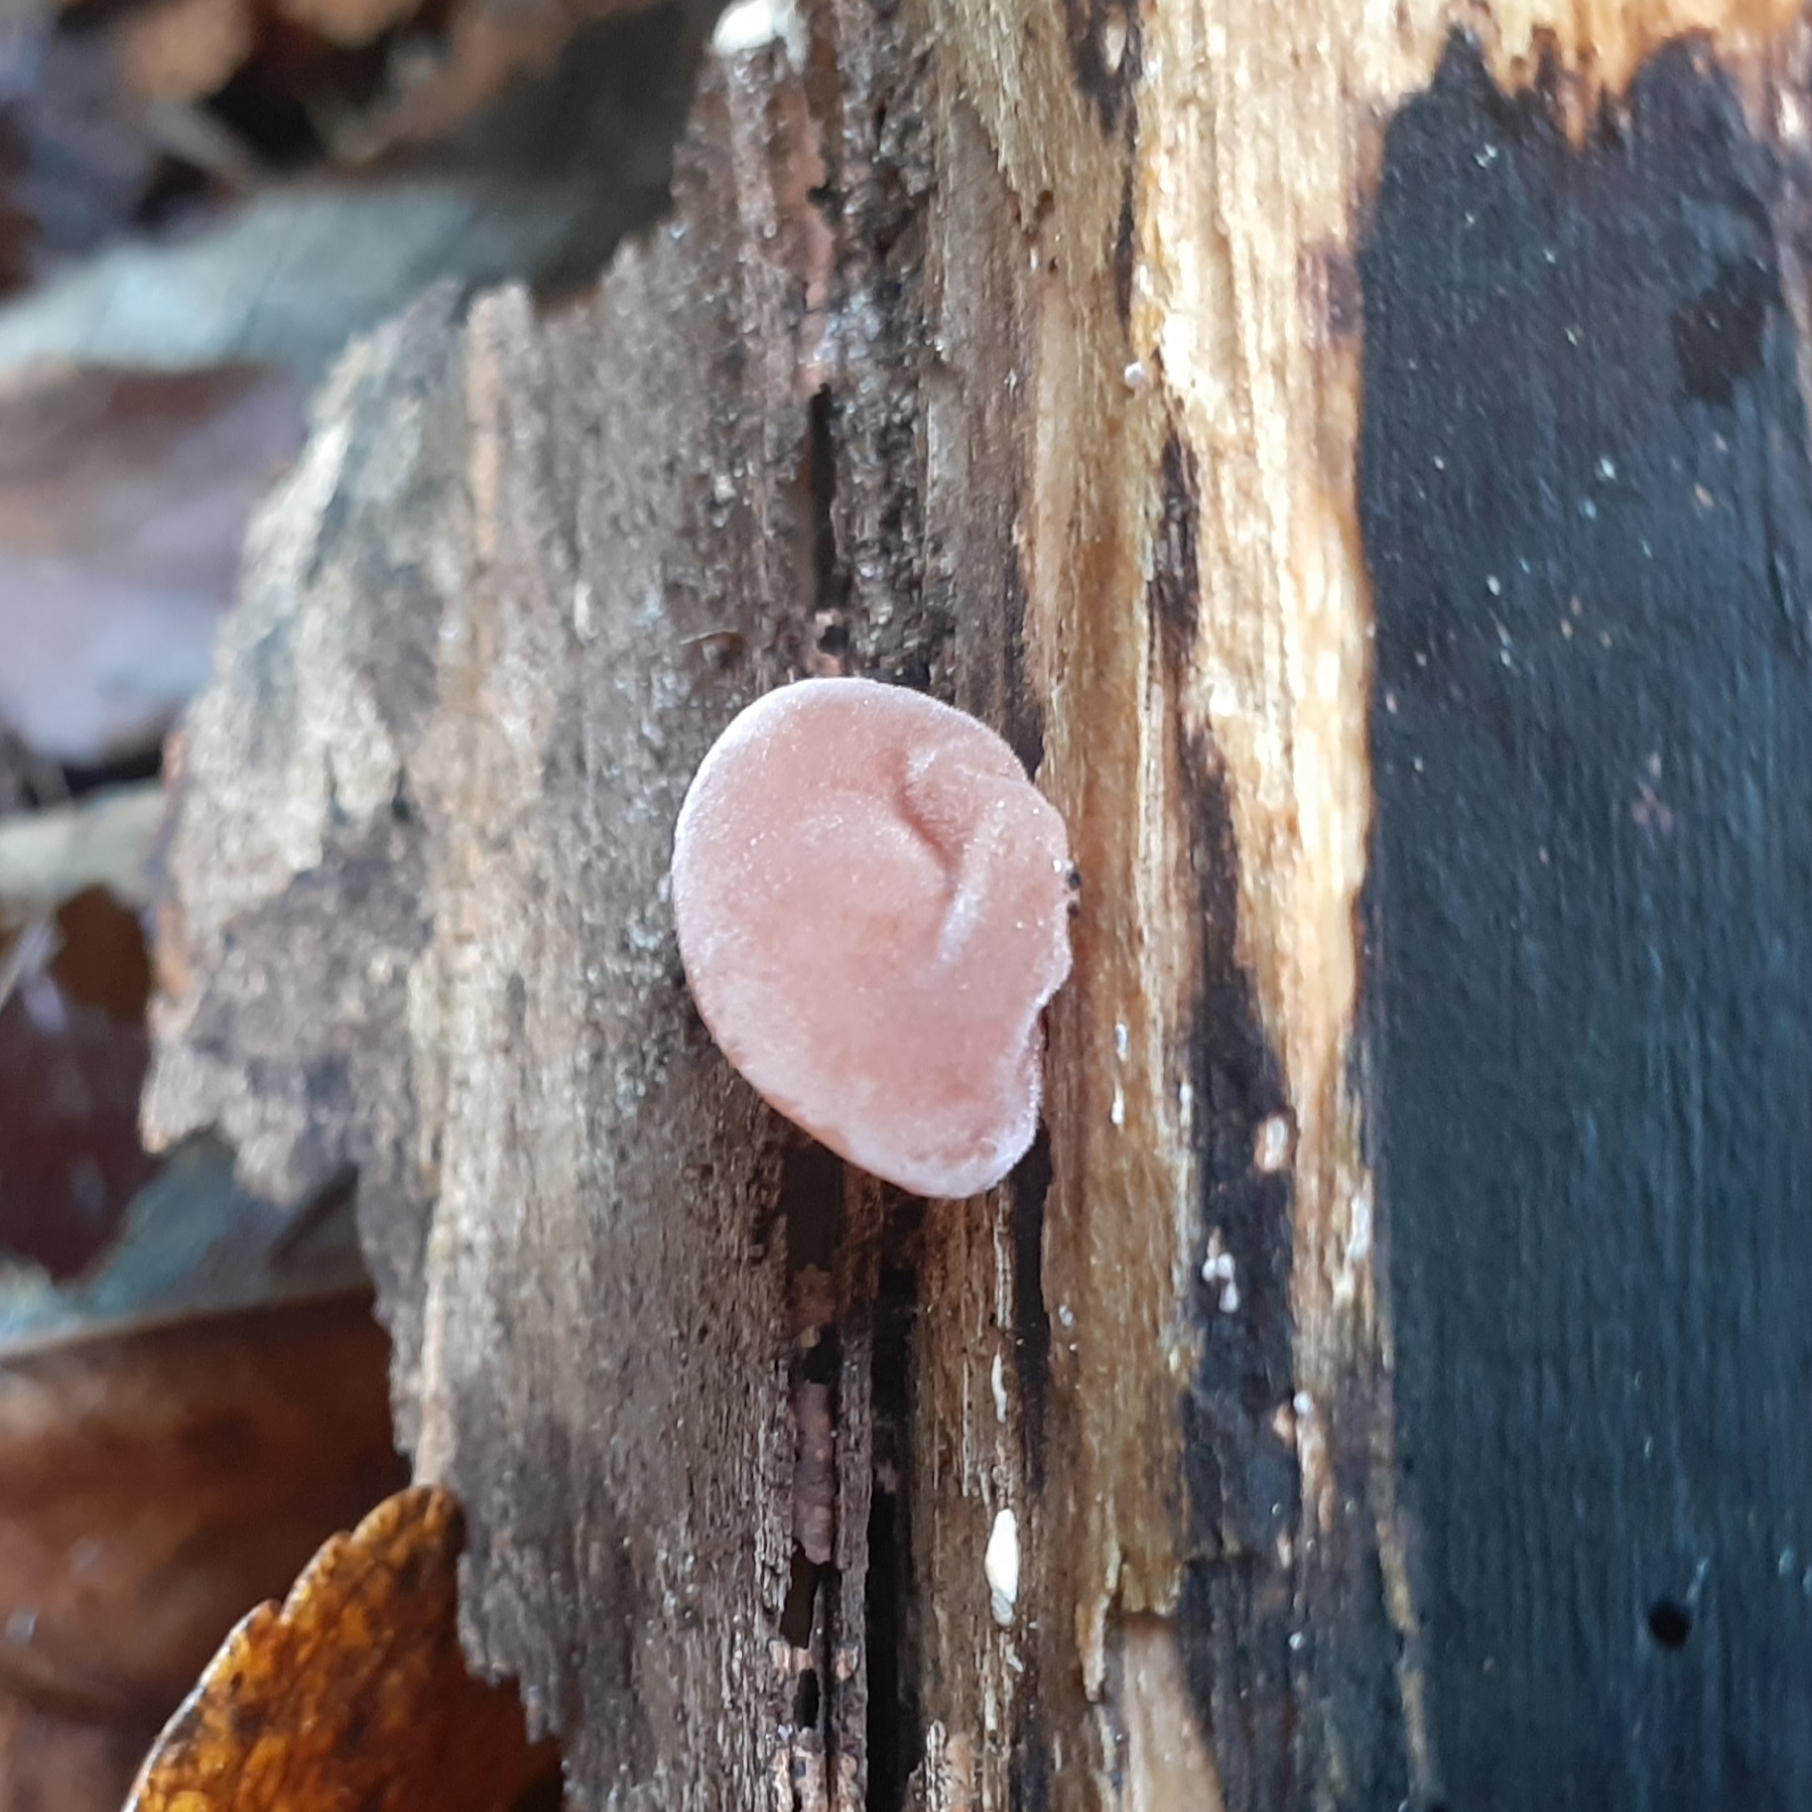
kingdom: Fungi
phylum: Basidiomycota
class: Agaricomycetes
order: Auriculariales
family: Auriculariaceae
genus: Auricularia
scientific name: Auricularia auricula-judae
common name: Jelly ear
